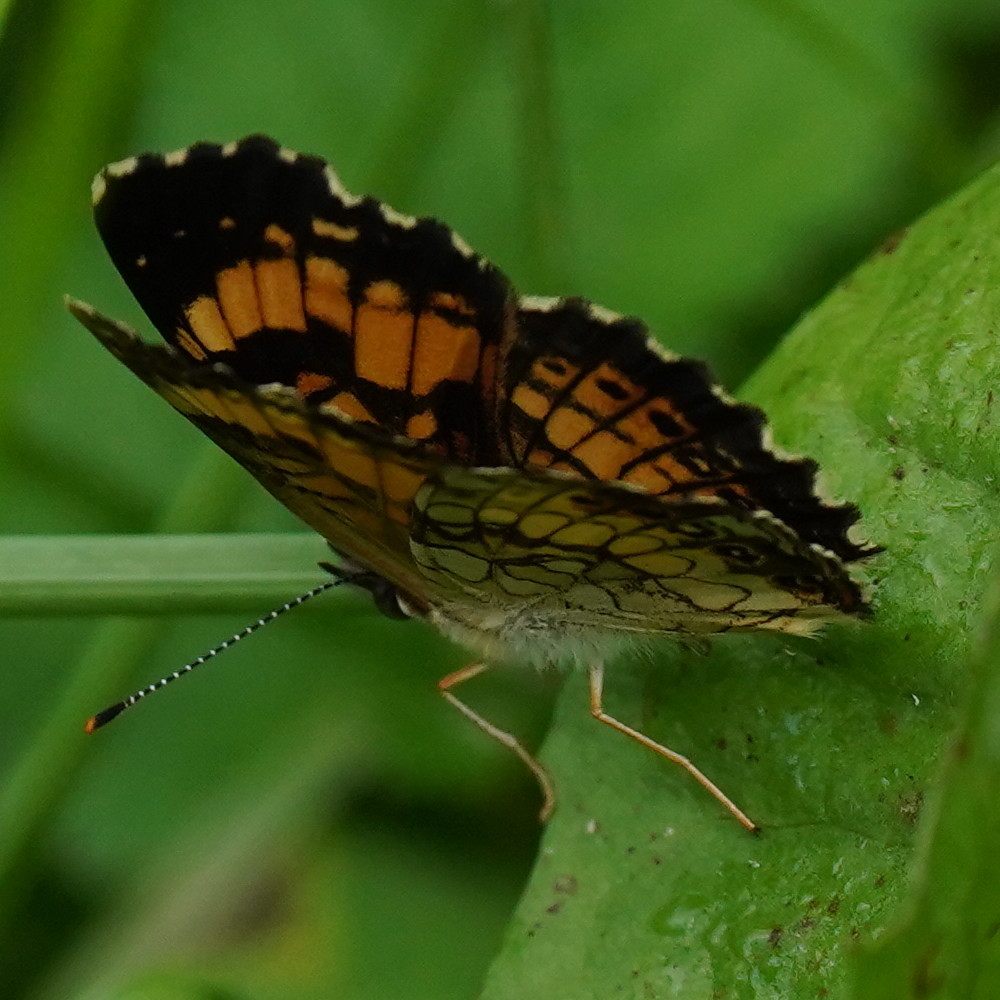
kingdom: Animalia
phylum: Arthropoda
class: Insecta
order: Lepidoptera
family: Nymphalidae
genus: Chlosyne
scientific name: Chlosyne nycteis
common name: Silvery checkerspot
